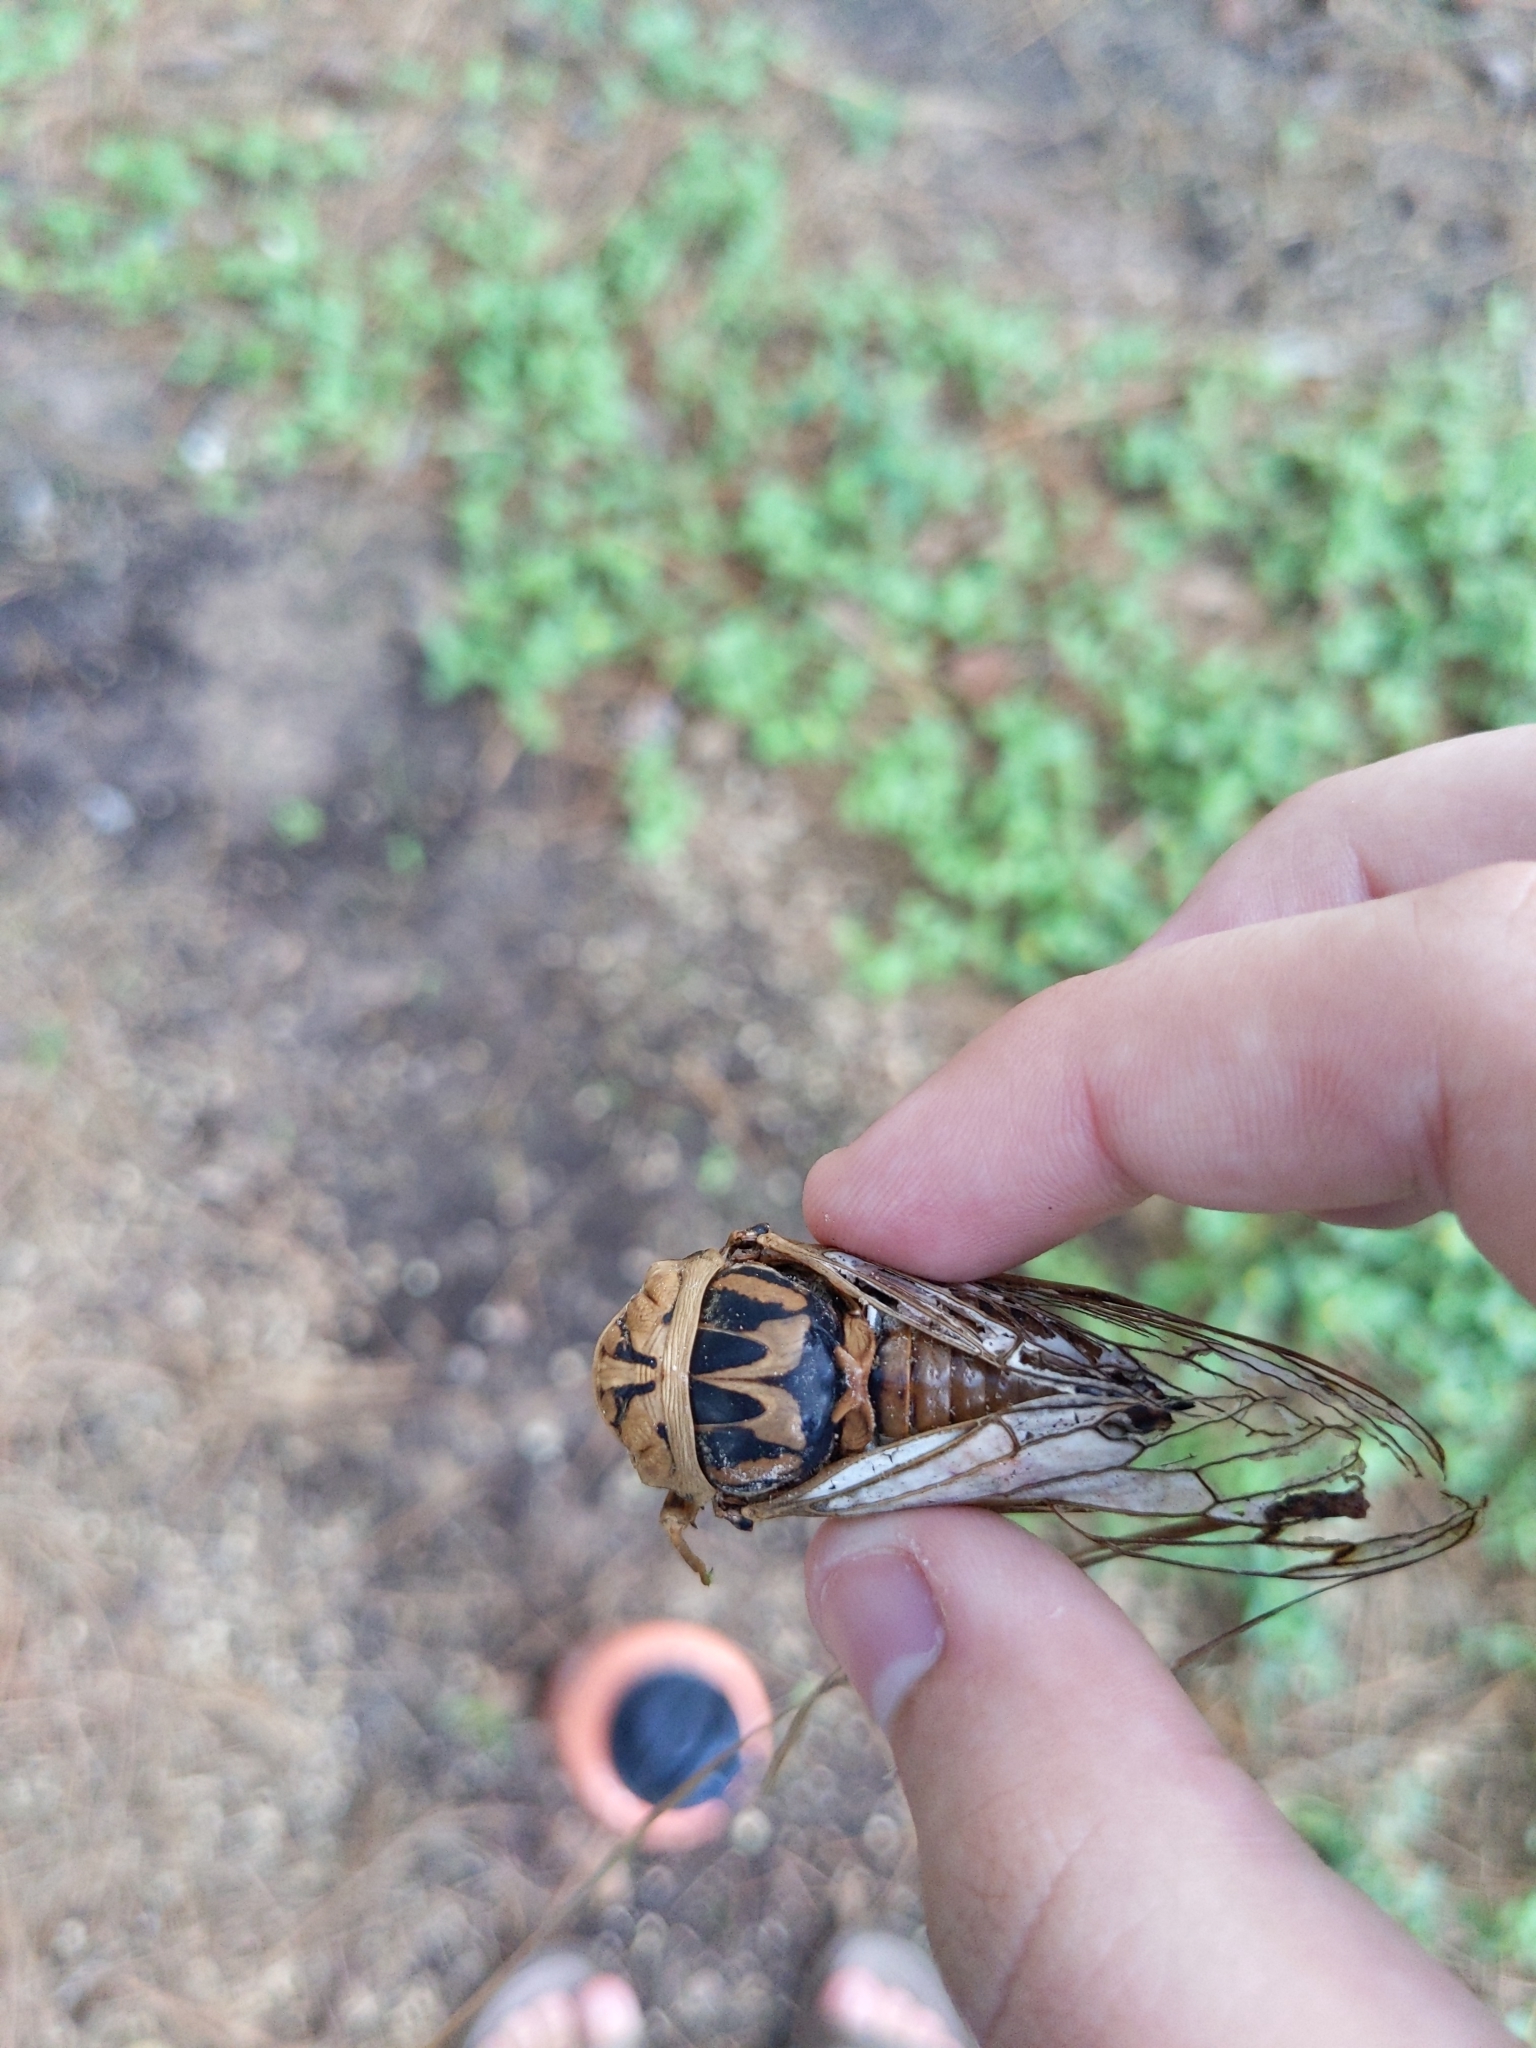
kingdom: Animalia
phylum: Arthropoda
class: Insecta
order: Hemiptera
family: Cicadidae
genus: Megatibicen
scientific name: Megatibicen resh
